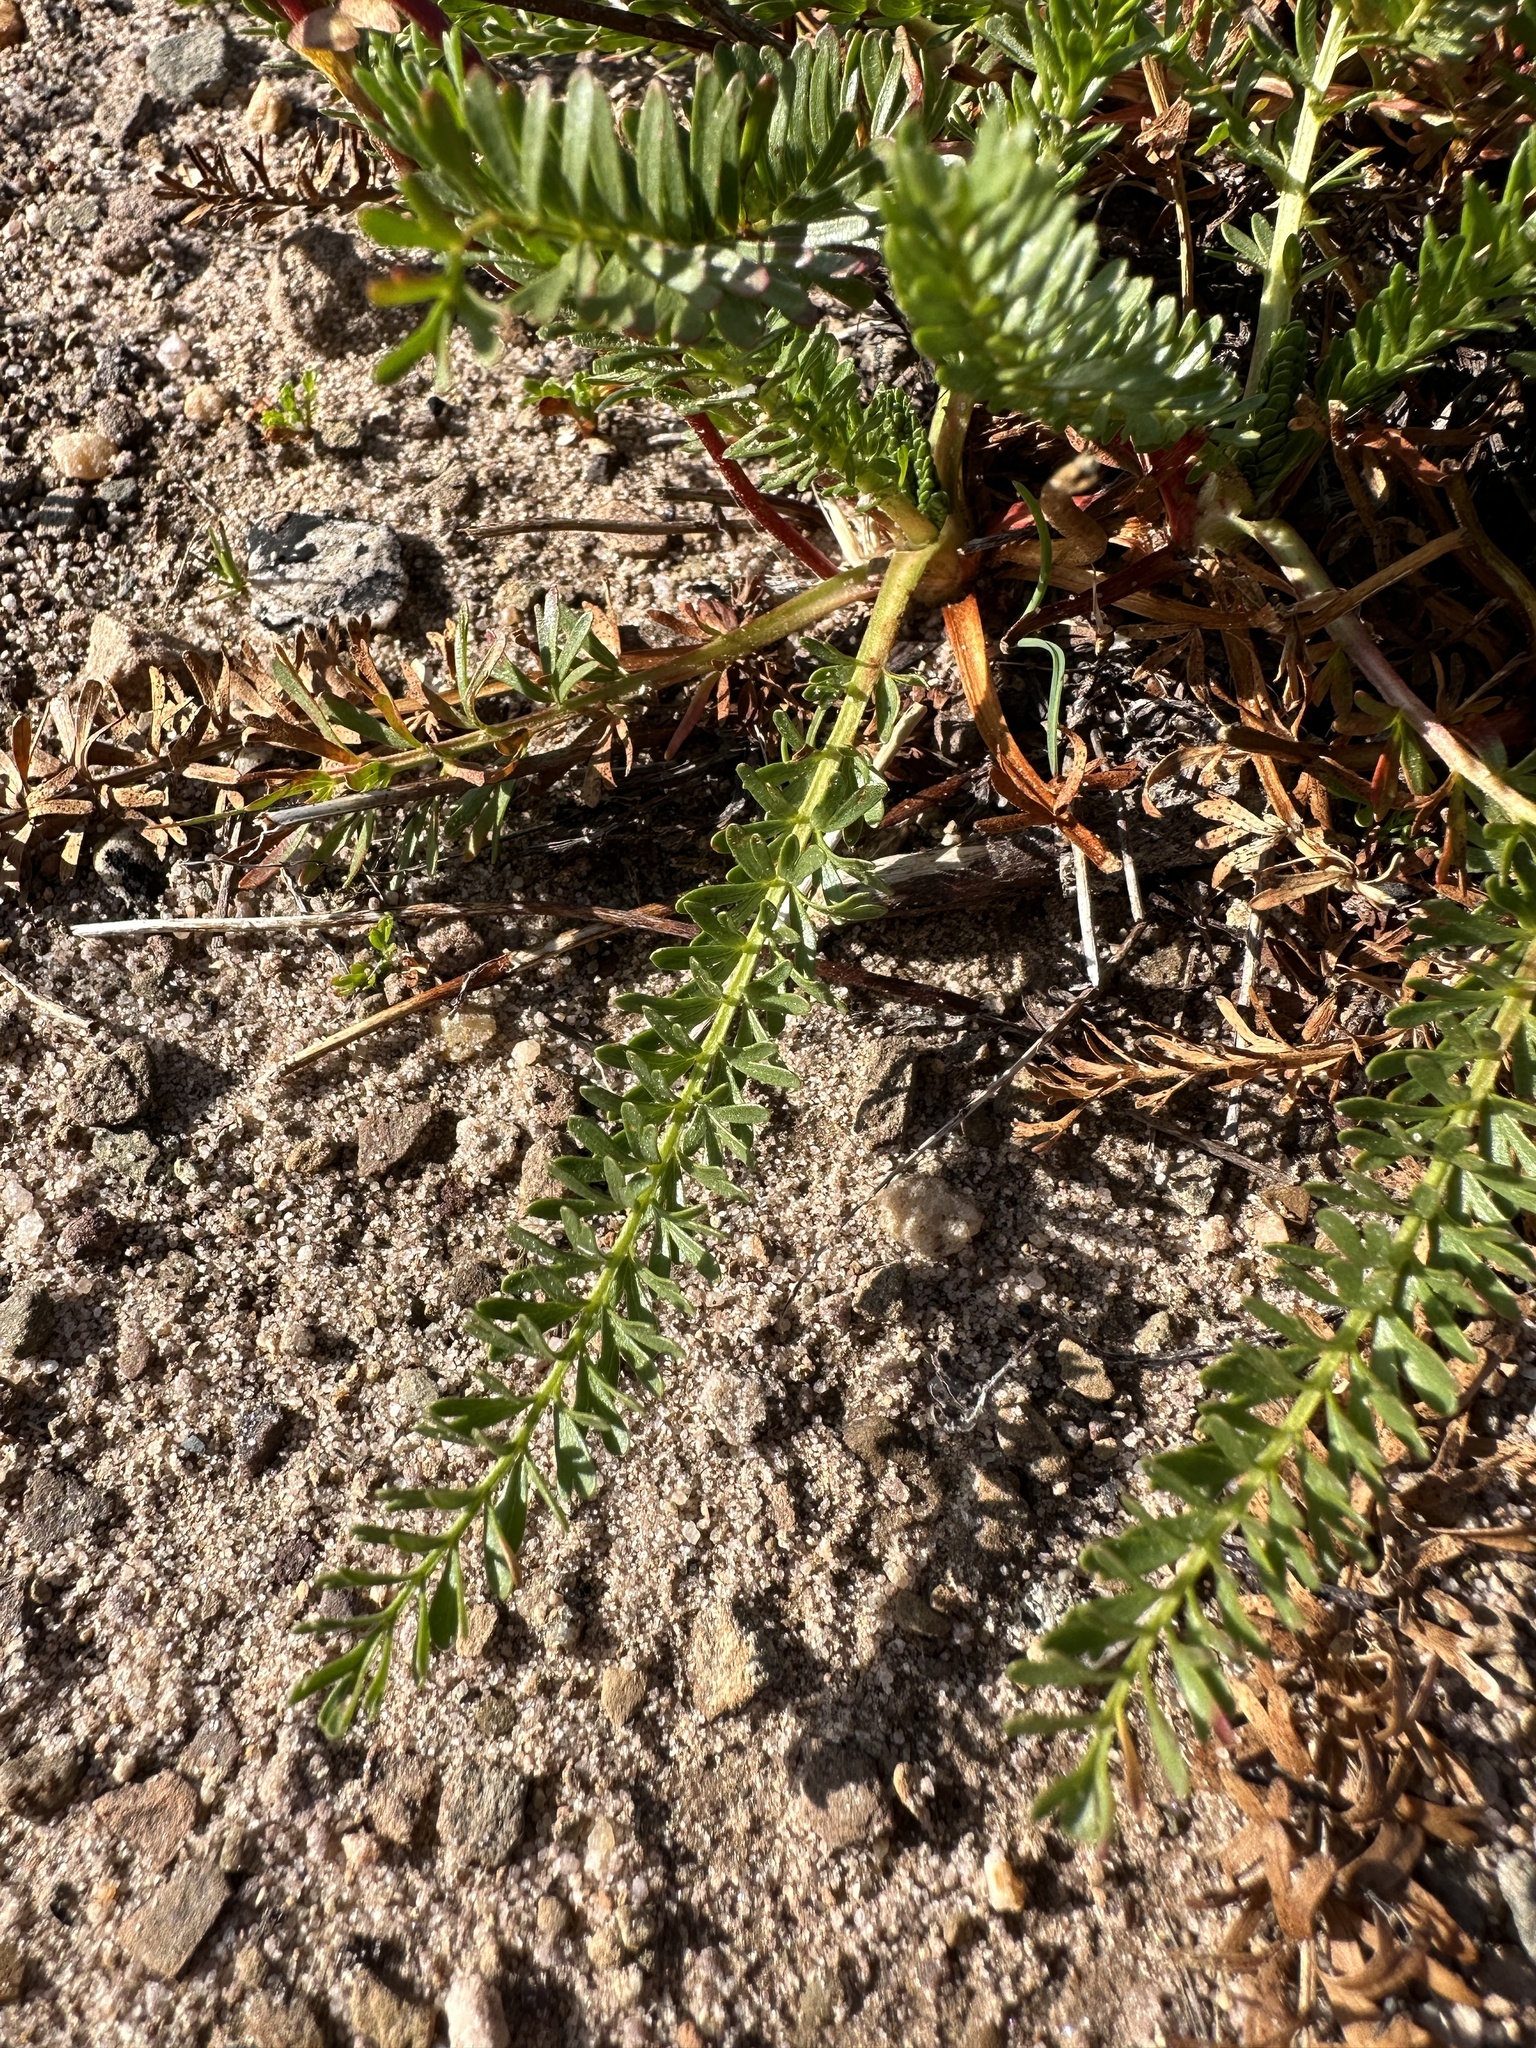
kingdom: Plantae
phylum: Tracheophyta
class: Magnoliopsida
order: Rosales
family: Rosaceae
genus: Potentilla
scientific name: Potentilla gordonii
